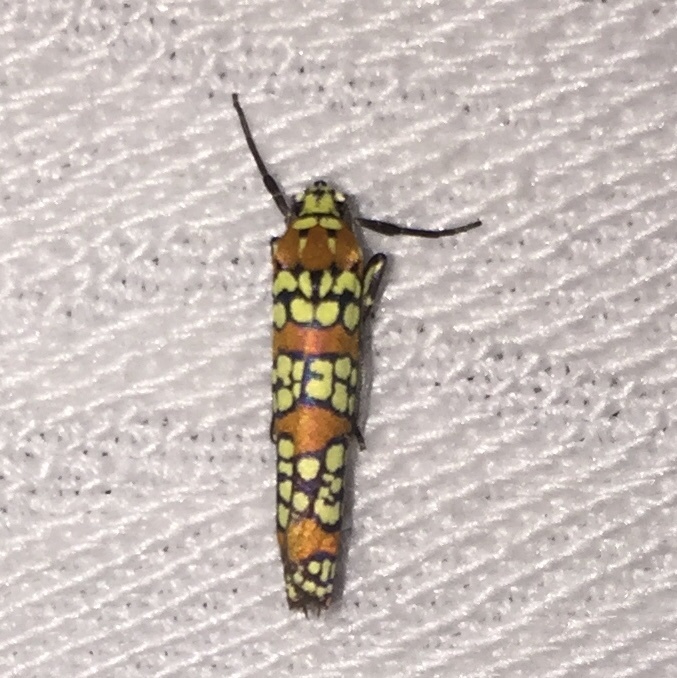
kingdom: Animalia
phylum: Arthropoda
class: Insecta
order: Lepidoptera
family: Attevidae
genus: Atteva
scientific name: Atteva punctella
